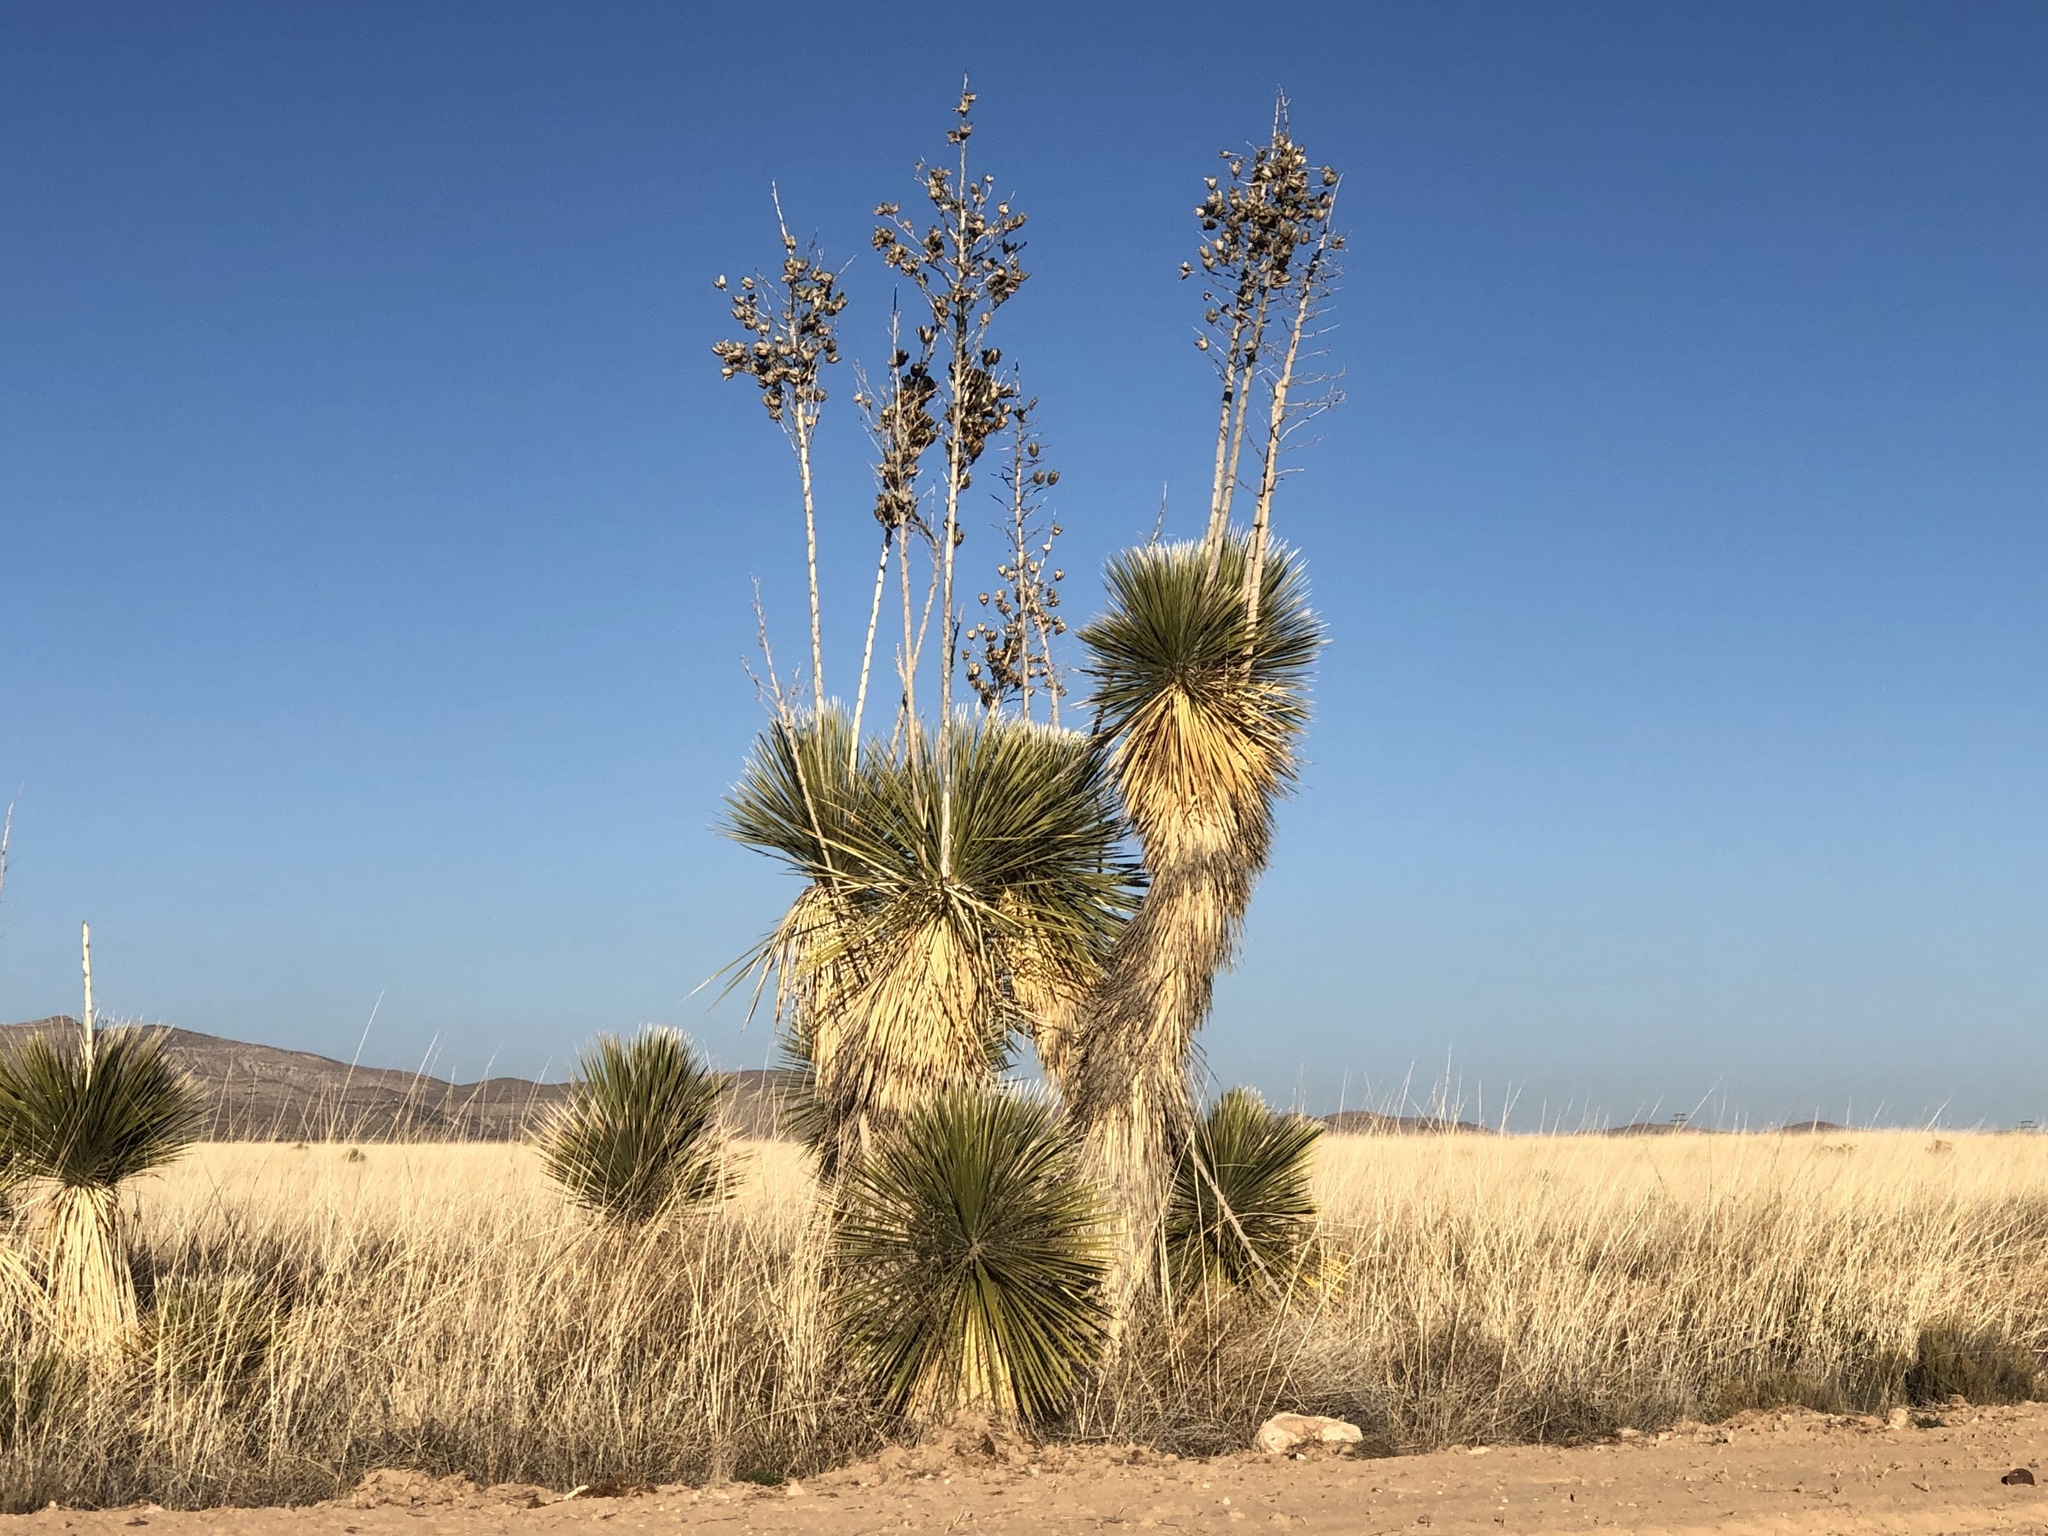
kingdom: Plantae
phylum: Tracheophyta
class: Liliopsida
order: Asparagales
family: Asparagaceae
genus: Yucca
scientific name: Yucca elata
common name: Palmella
